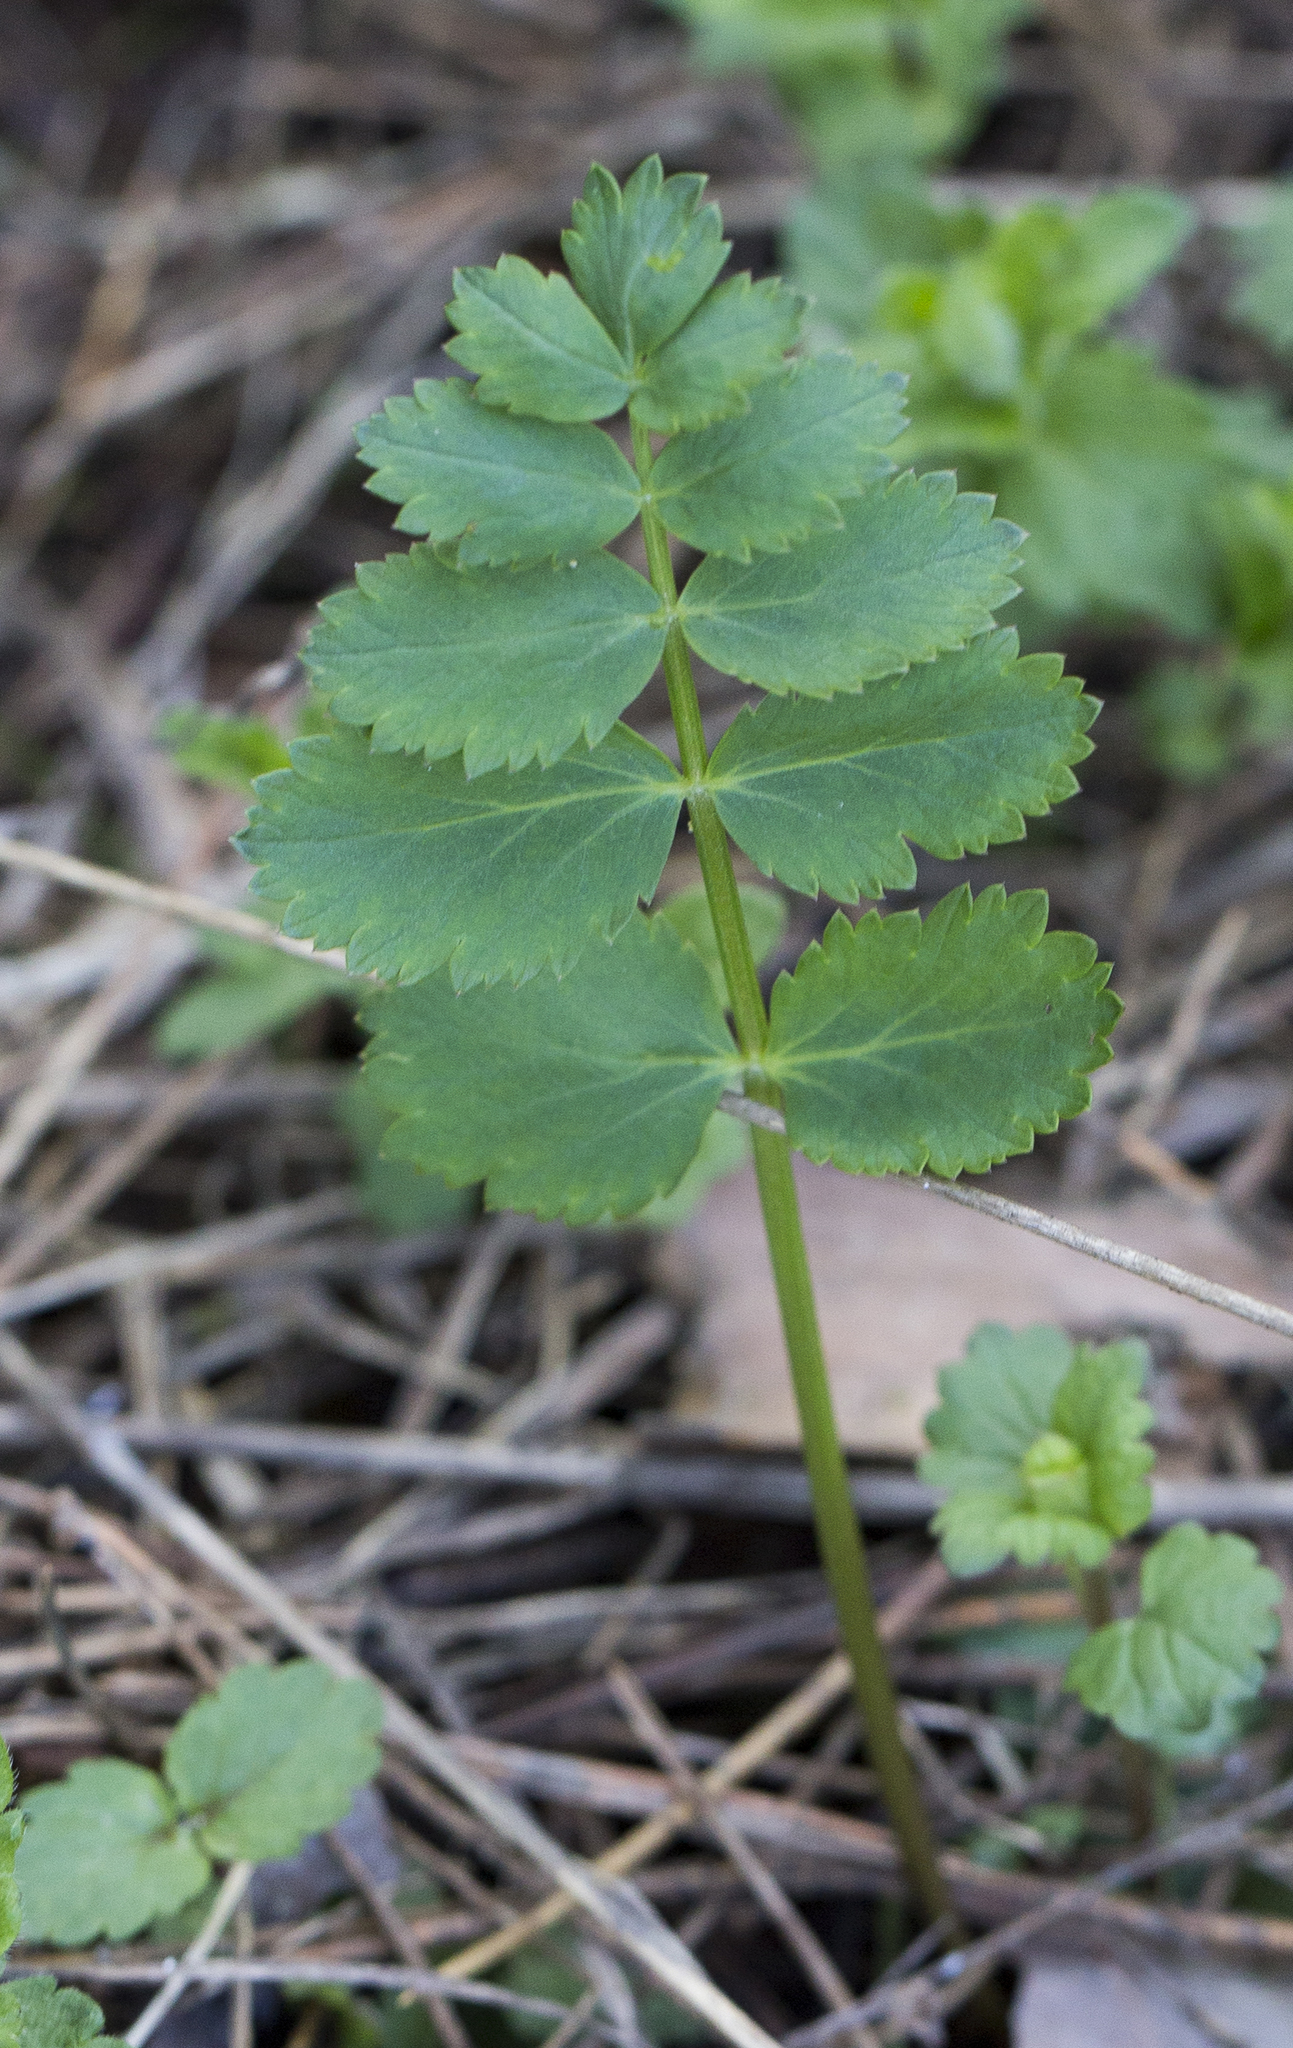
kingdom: Plantae
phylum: Tracheophyta
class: Magnoliopsida
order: Apiales
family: Apiaceae
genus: Pimpinella
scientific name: Pimpinella saxifraga
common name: Burnet-saxifrage
